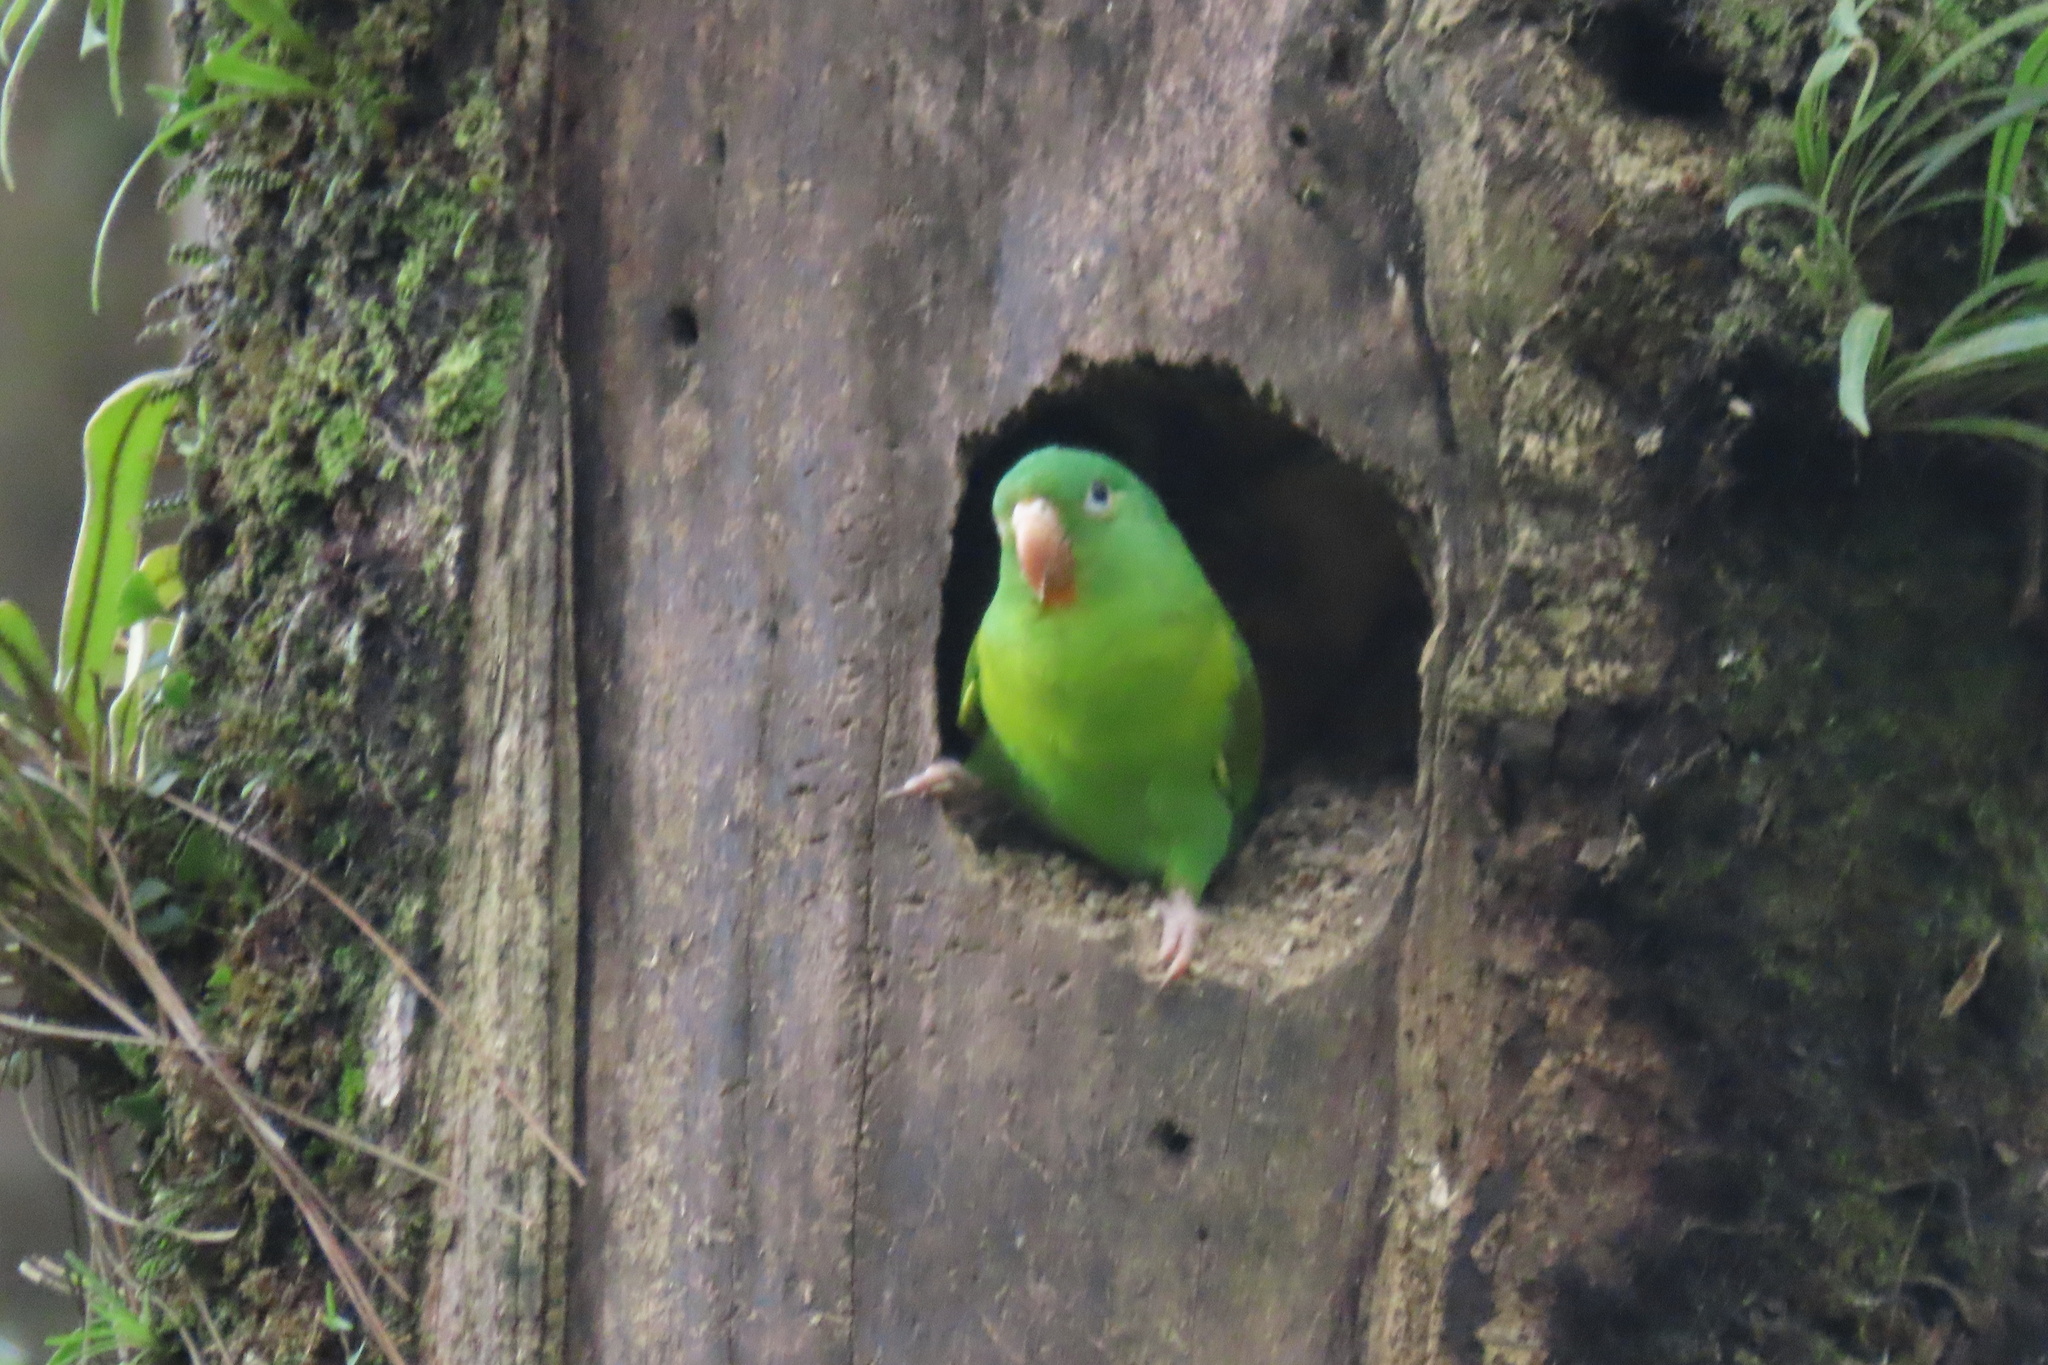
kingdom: Animalia
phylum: Chordata
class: Aves
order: Psittaciformes
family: Psittacidae
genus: Brotogeris
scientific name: Brotogeris jugularis
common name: Orange-chinned parakeet
